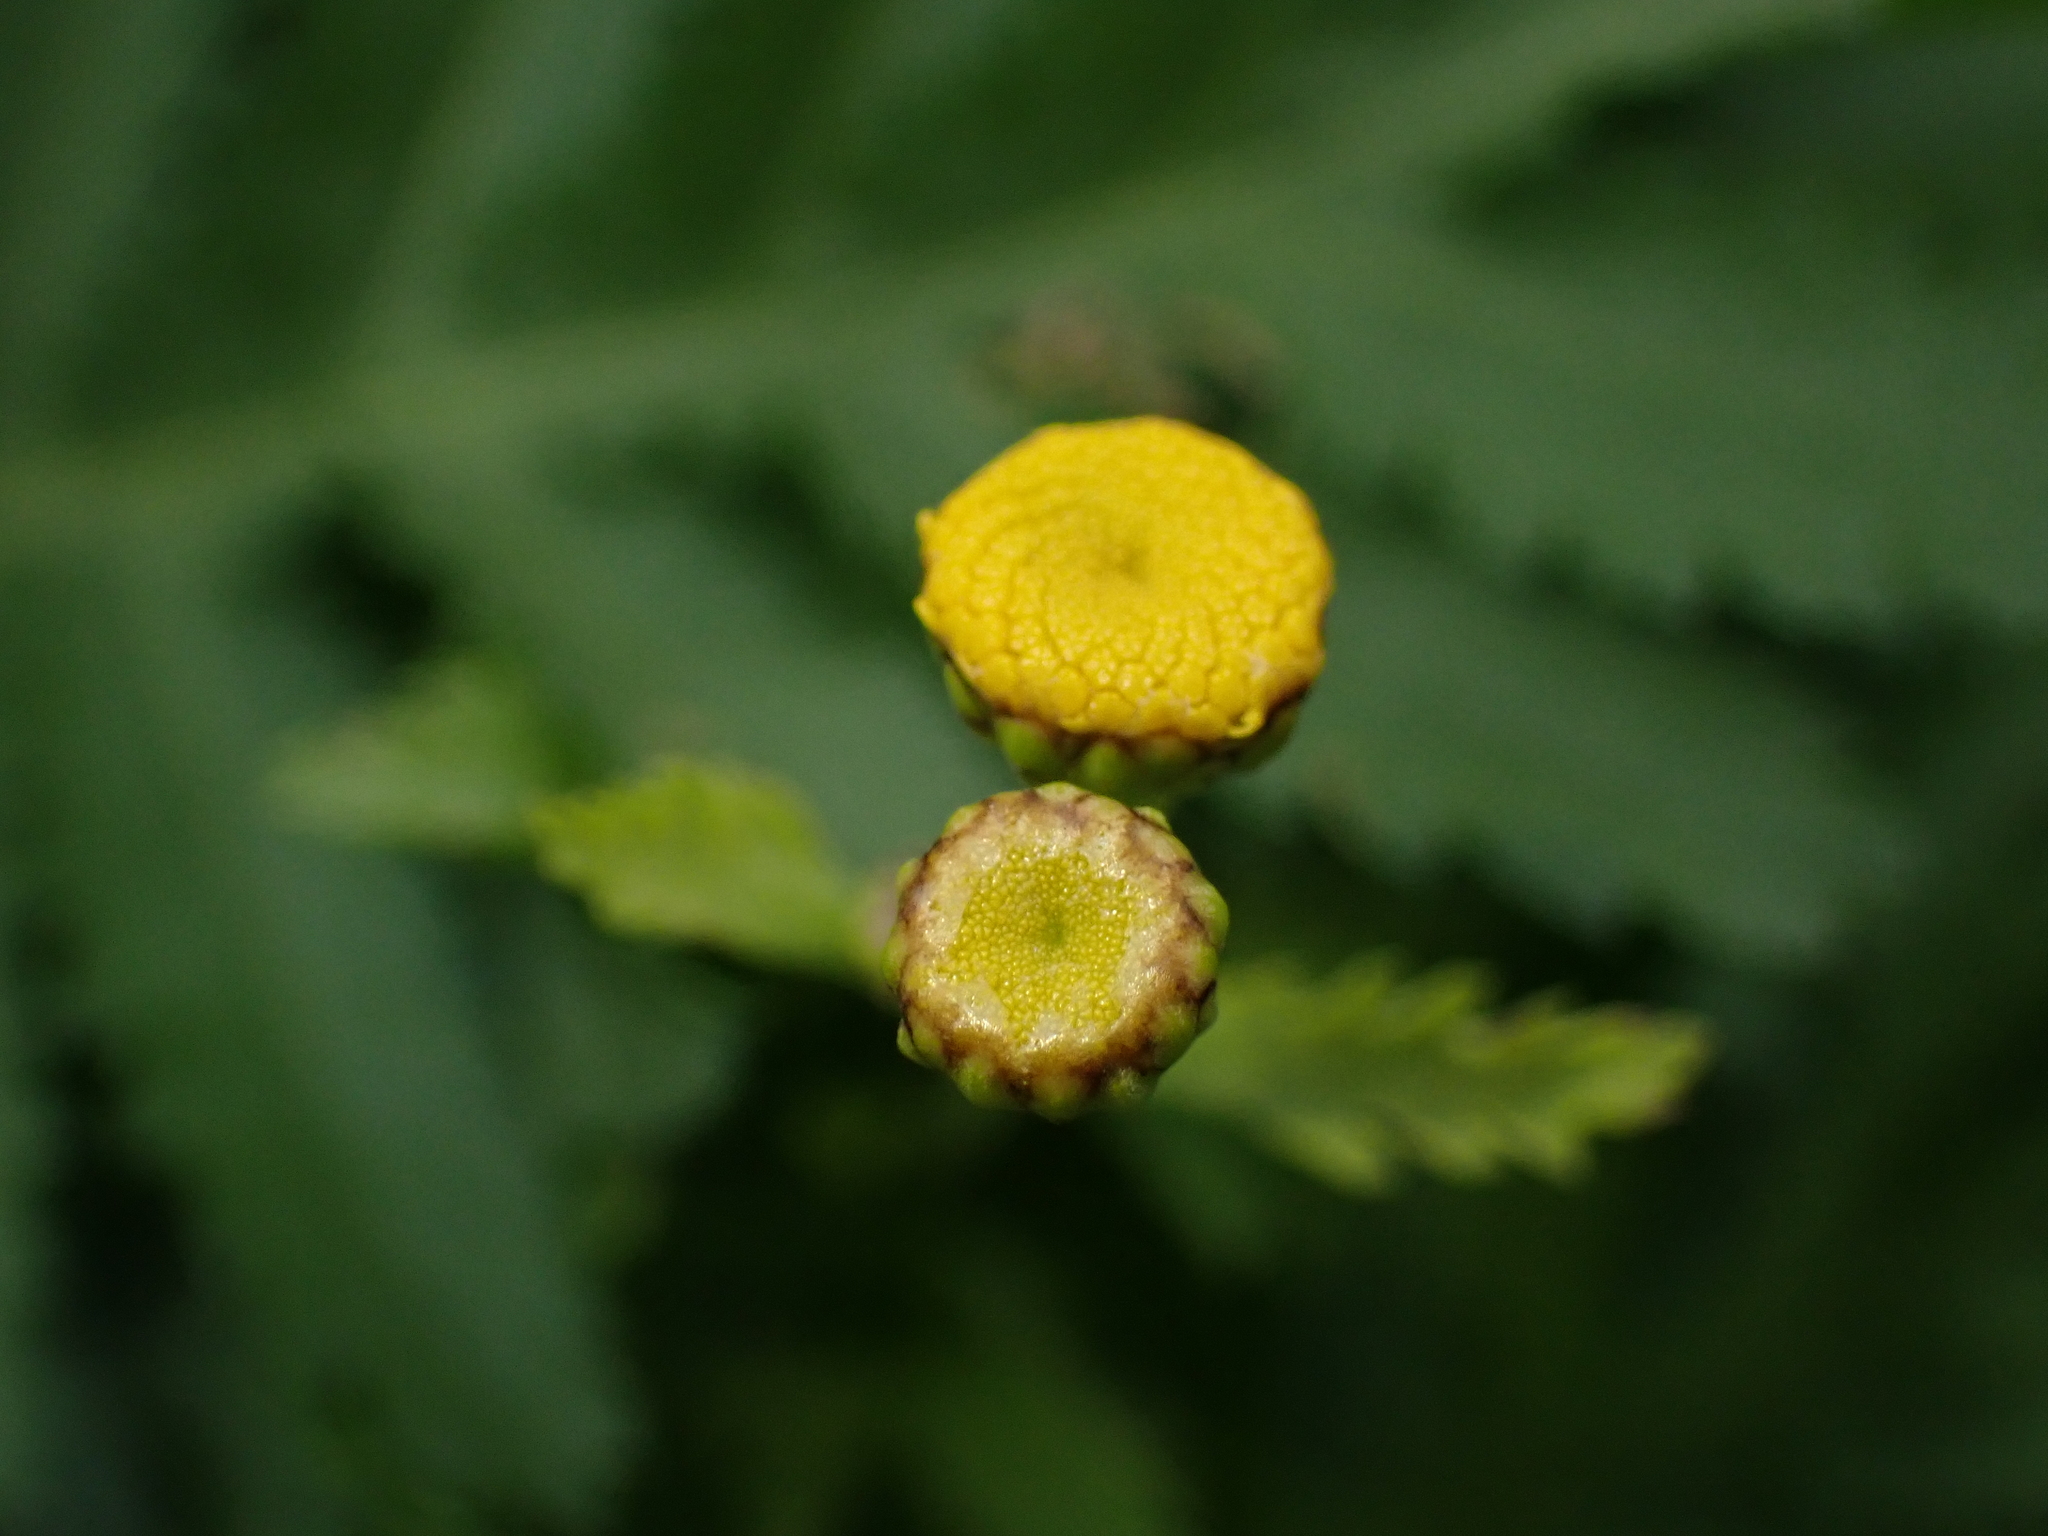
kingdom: Plantae
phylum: Tracheophyta
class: Magnoliopsida
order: Asterales
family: Asteraceae
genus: Tanacetum
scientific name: Tanacetum vulgare
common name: Common tansy
